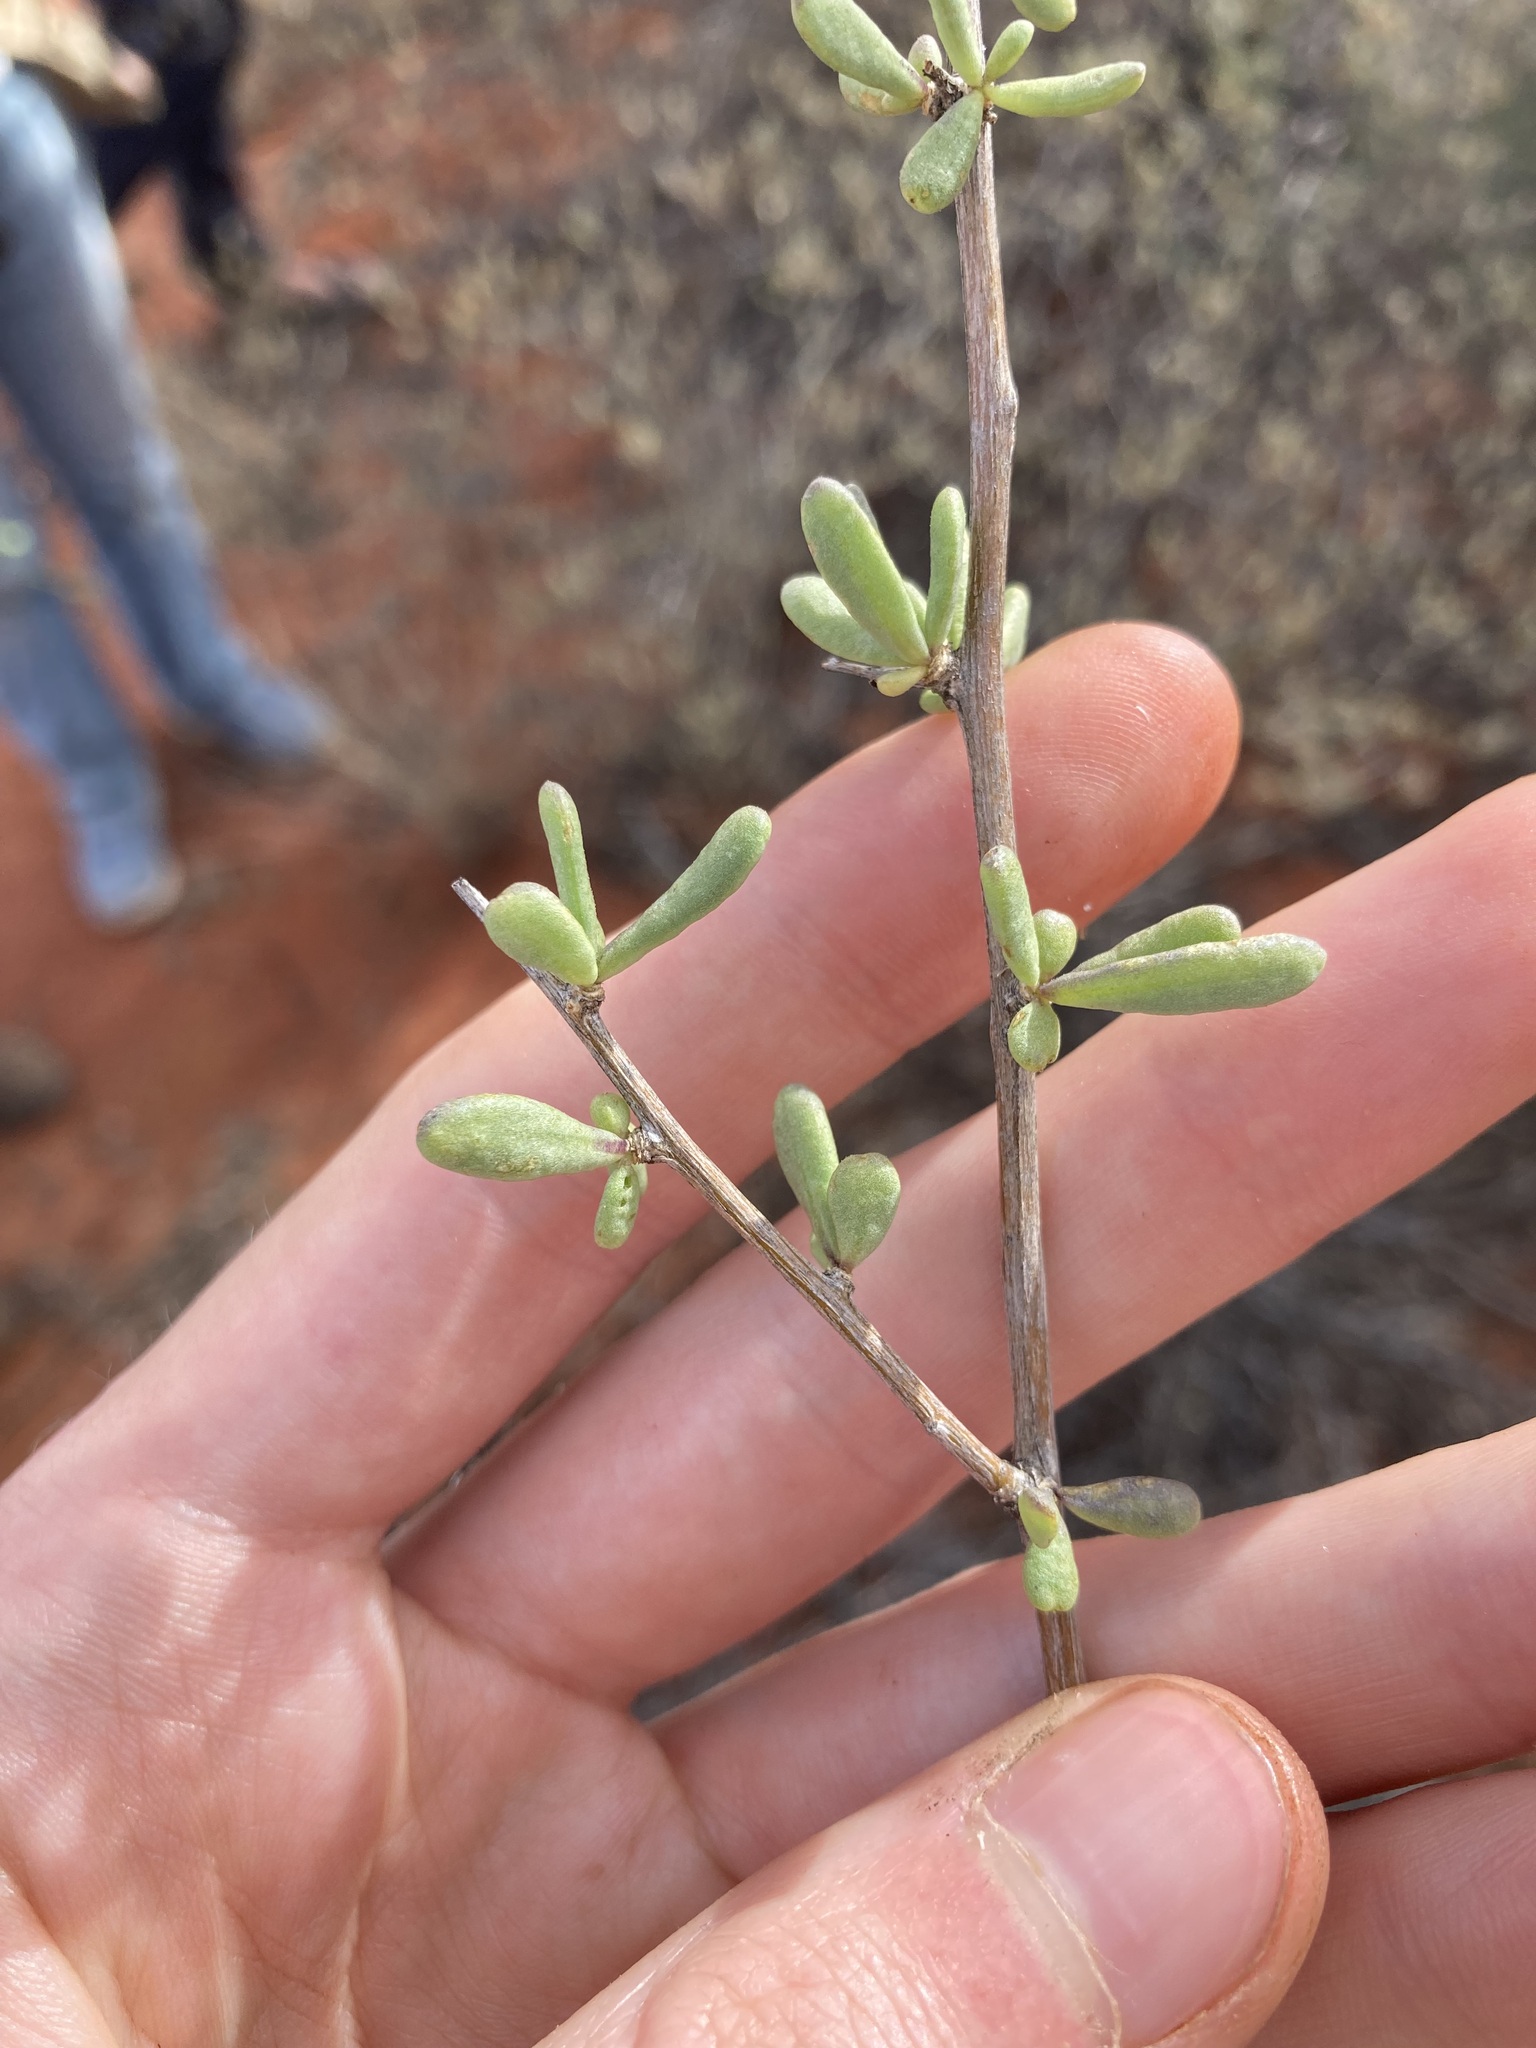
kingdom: Plantae
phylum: Tracheophyta
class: Magnoliopsida
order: Solanales
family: Solanaceae
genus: Lycium
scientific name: Lycium australe
